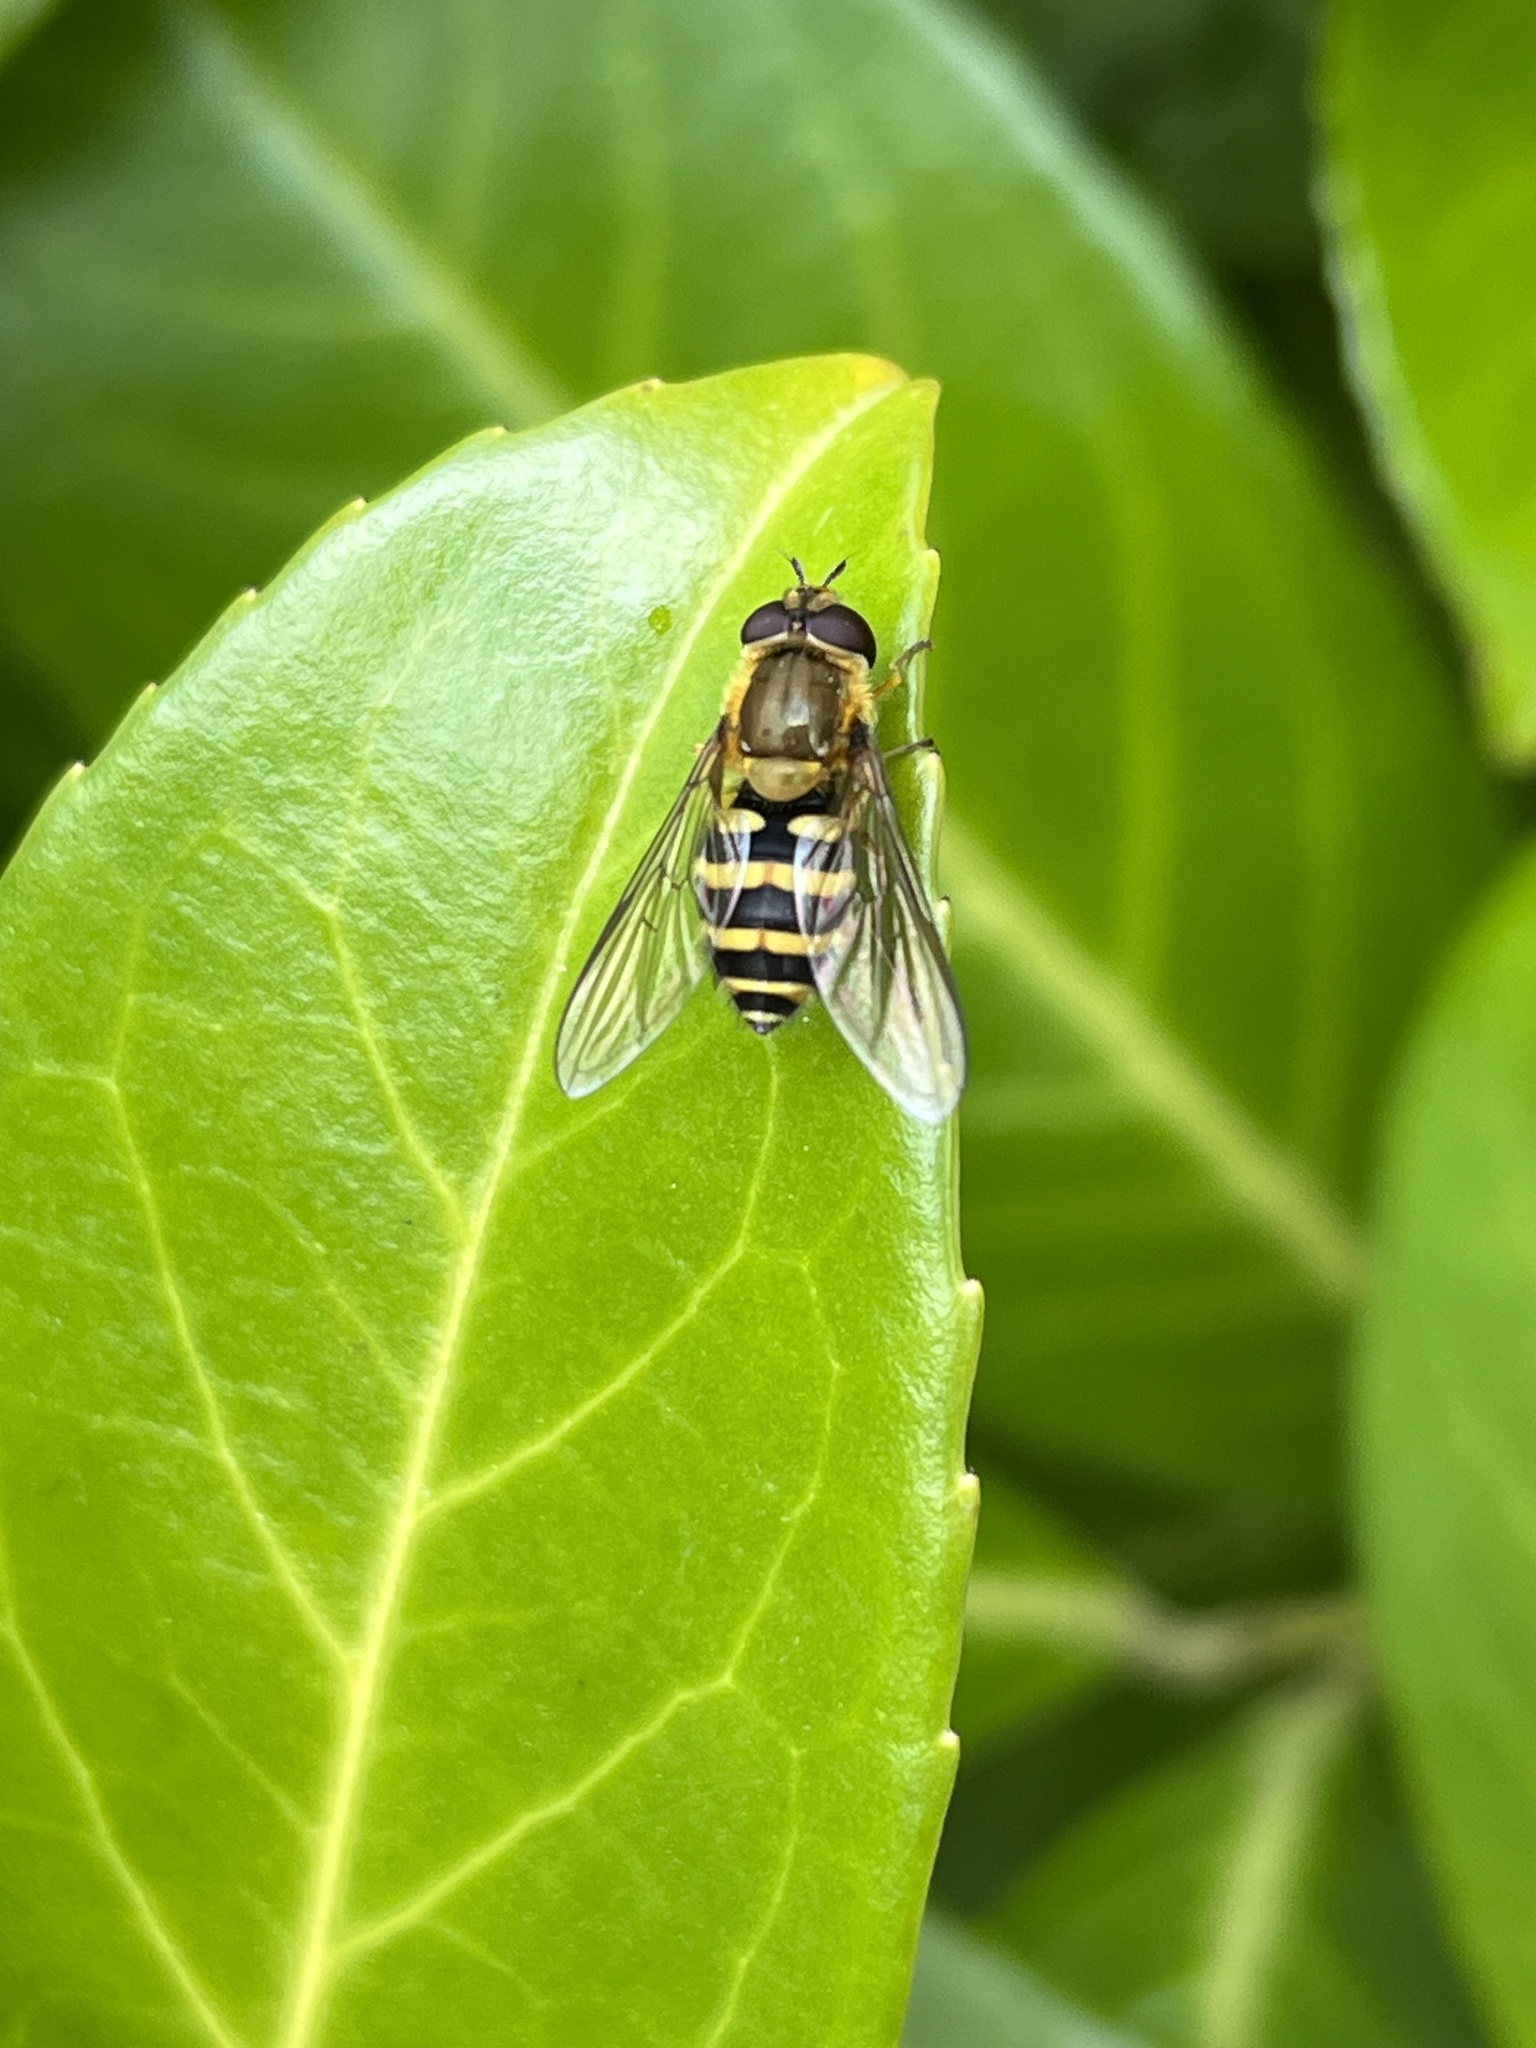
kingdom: Animalia
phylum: Arthropoda
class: Insecta
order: Diptera
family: Syrphidae
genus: Syrphus
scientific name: Syrphus
